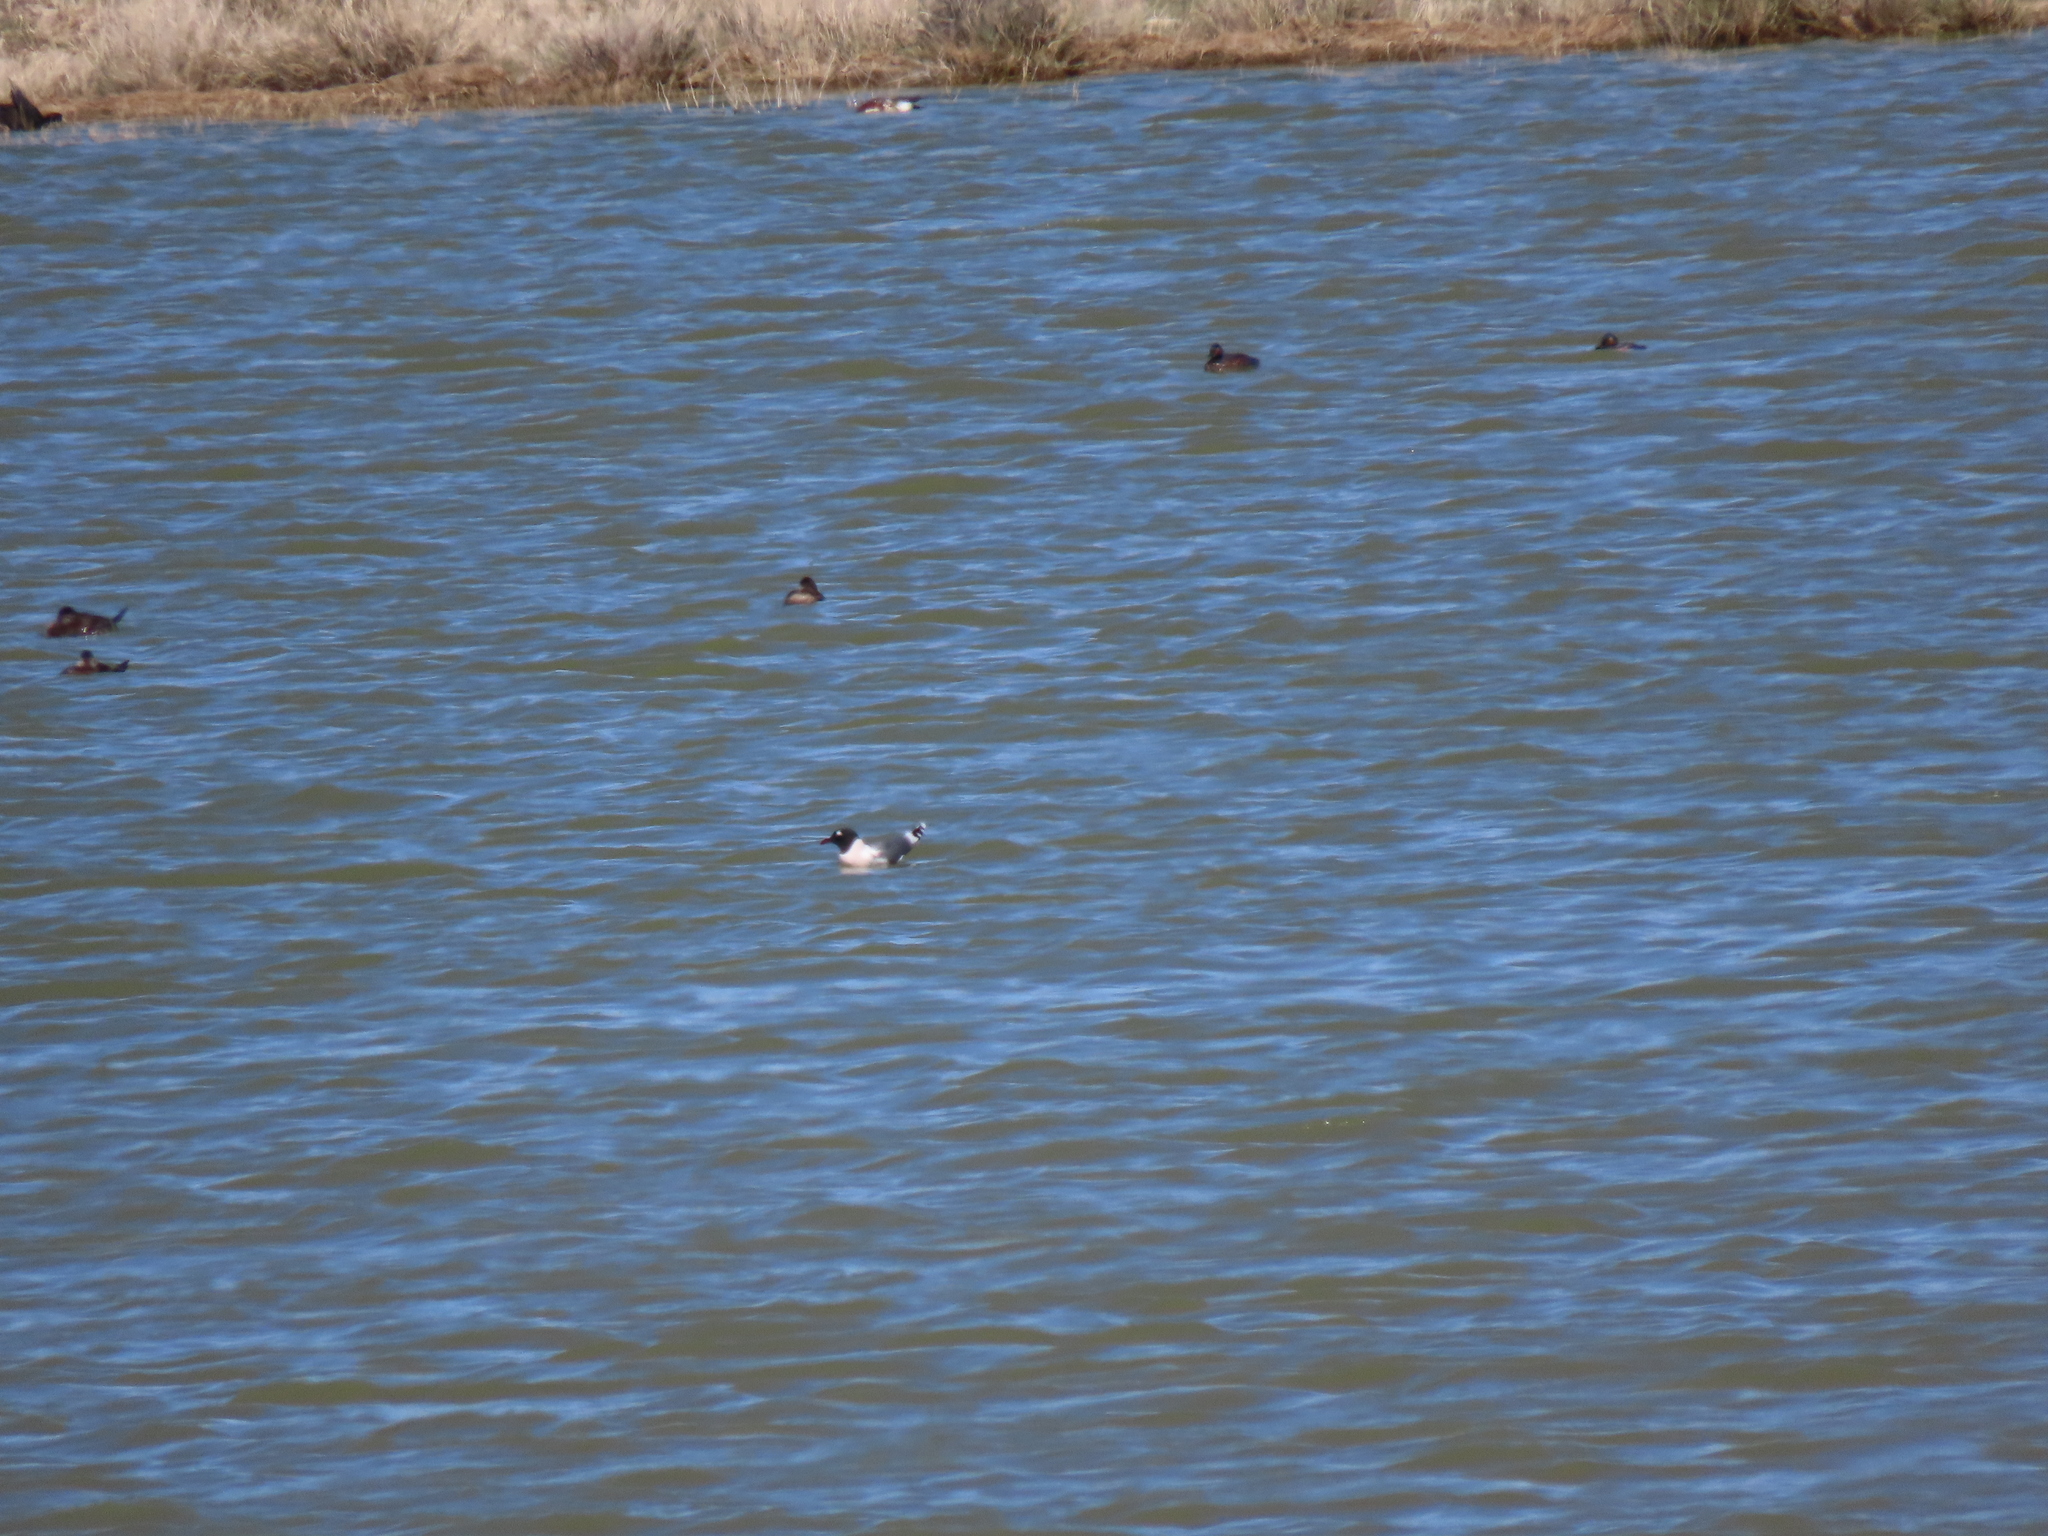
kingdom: Animalia
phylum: Chordata
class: Aves
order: Charadriiformes
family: Laridae
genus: Leucophaeus
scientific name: Leucophaeus pipixcan
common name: Franklin's gull
